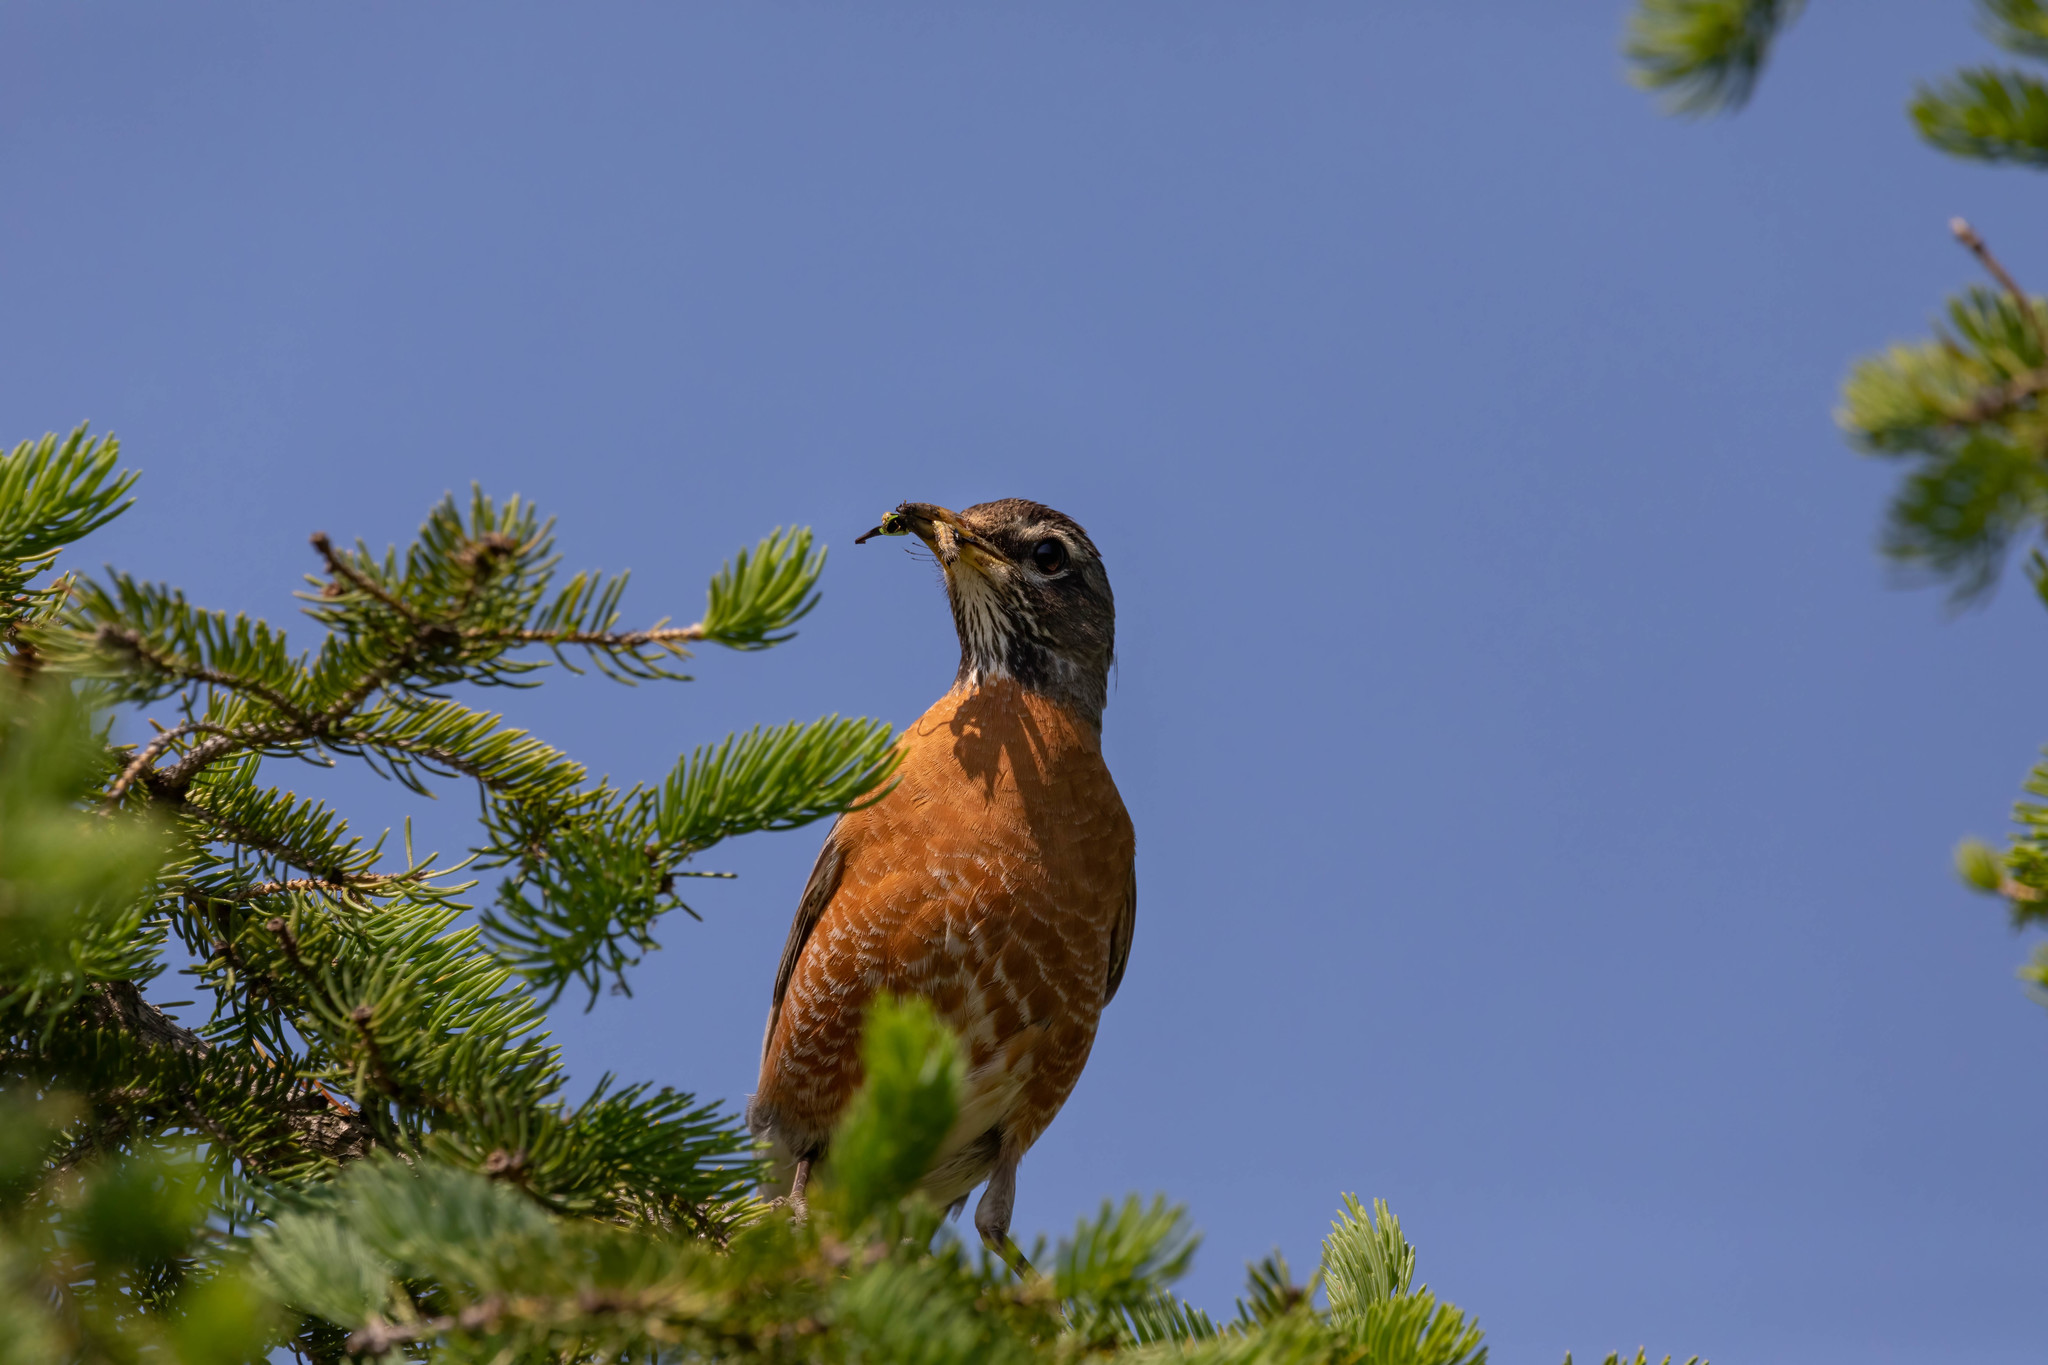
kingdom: Animalia
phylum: Chordata
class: Aves
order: Passeriformes
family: Turdidae
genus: Turdus
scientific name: Turdus migratorius
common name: American robin
